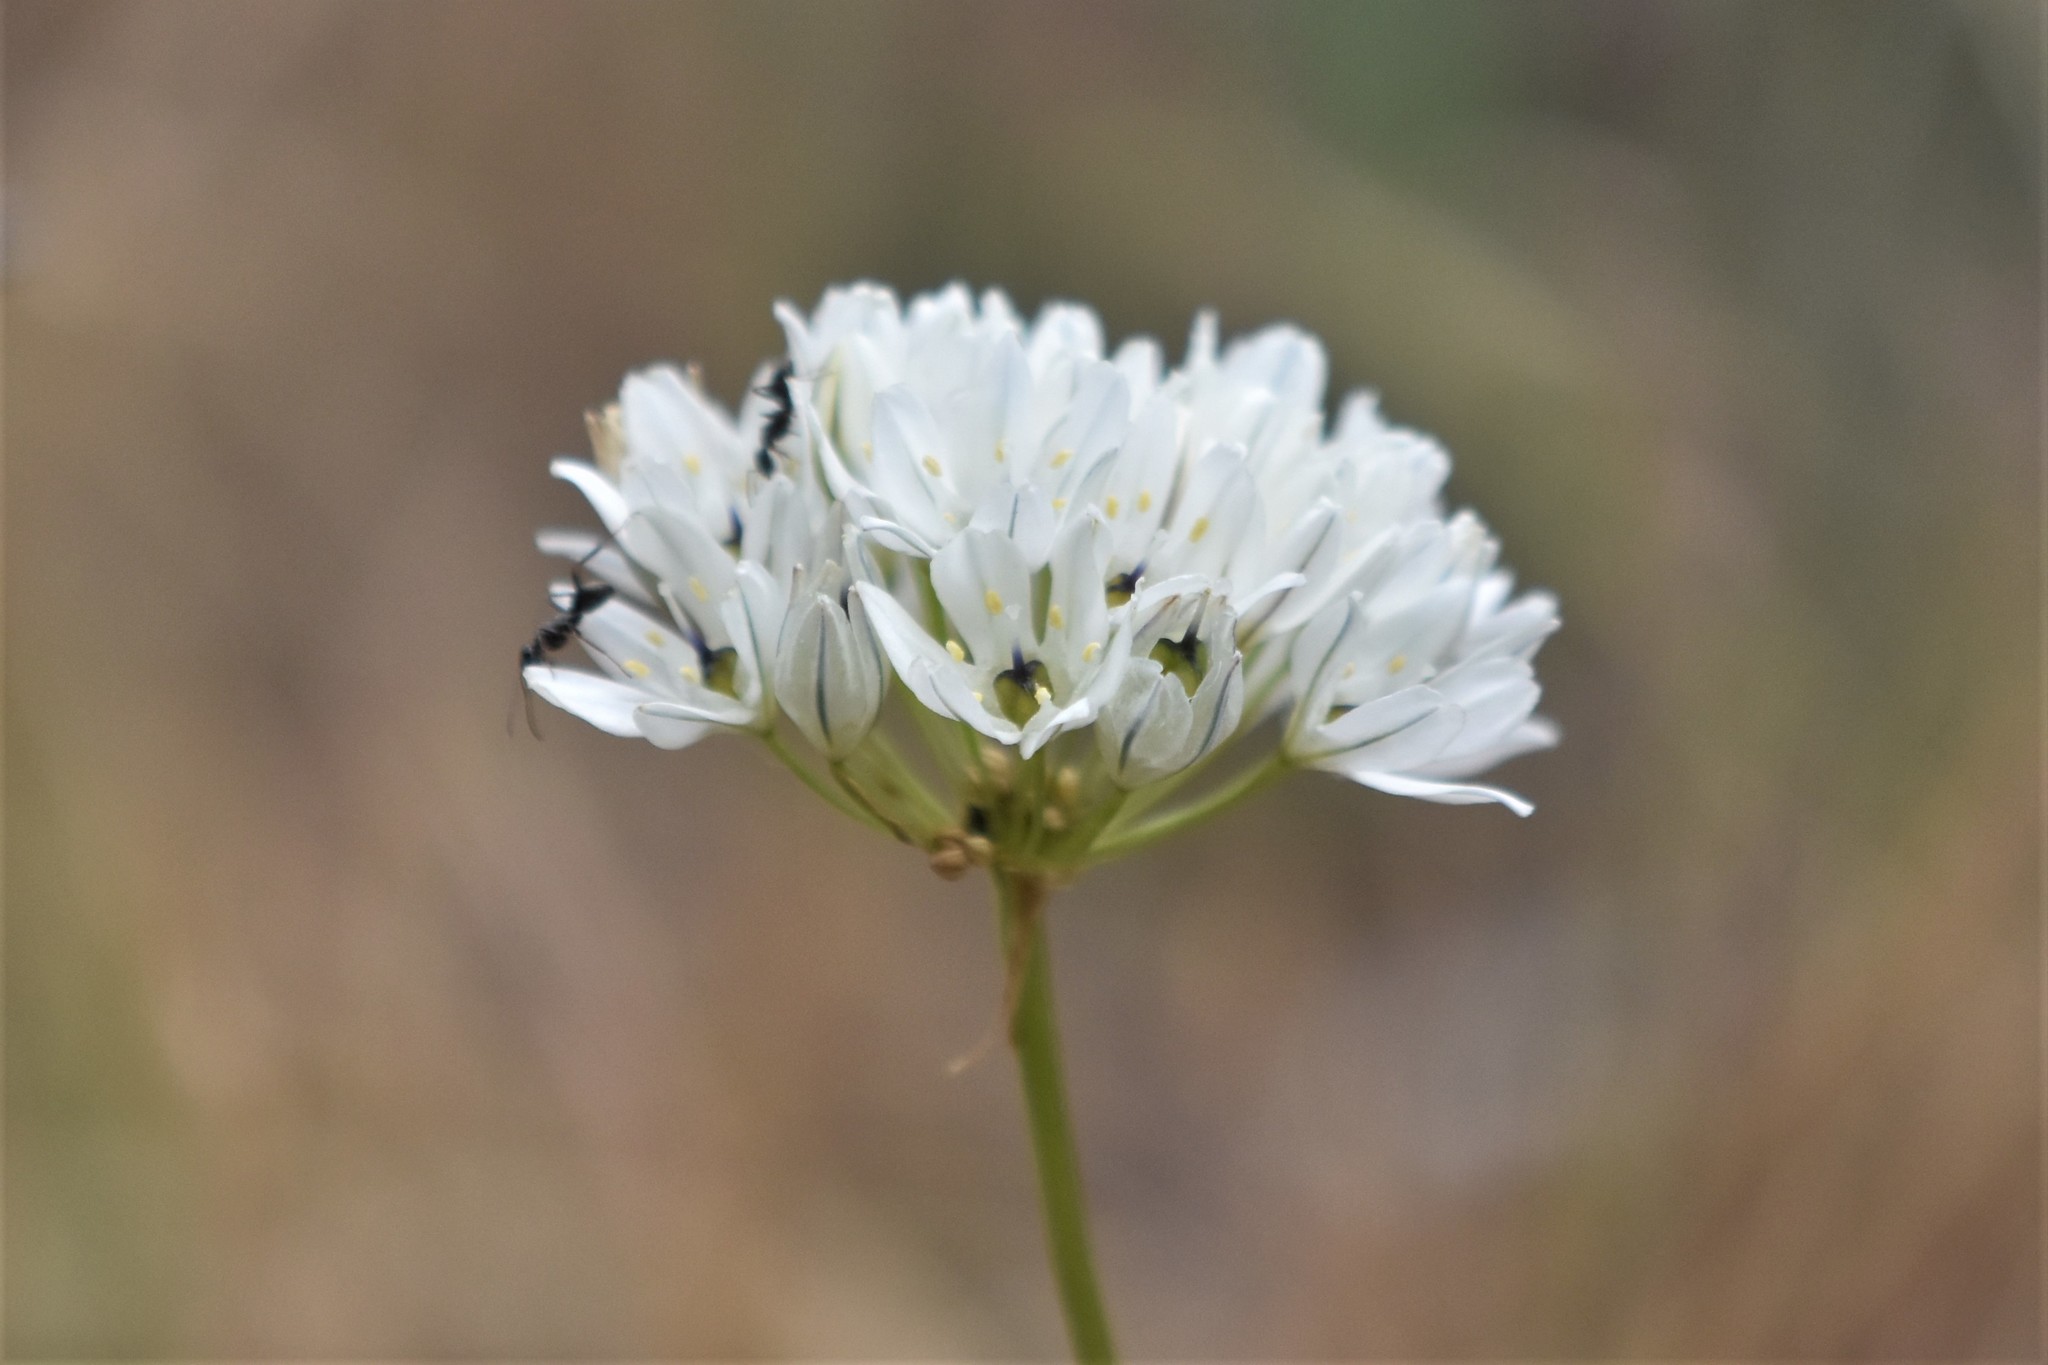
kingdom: Plantae
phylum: Tracheophyta
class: Liliopsida
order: Asparagales
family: Asparagaceae
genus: Triteleia
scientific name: Triteleia hyacinthina
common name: White brodiaea
